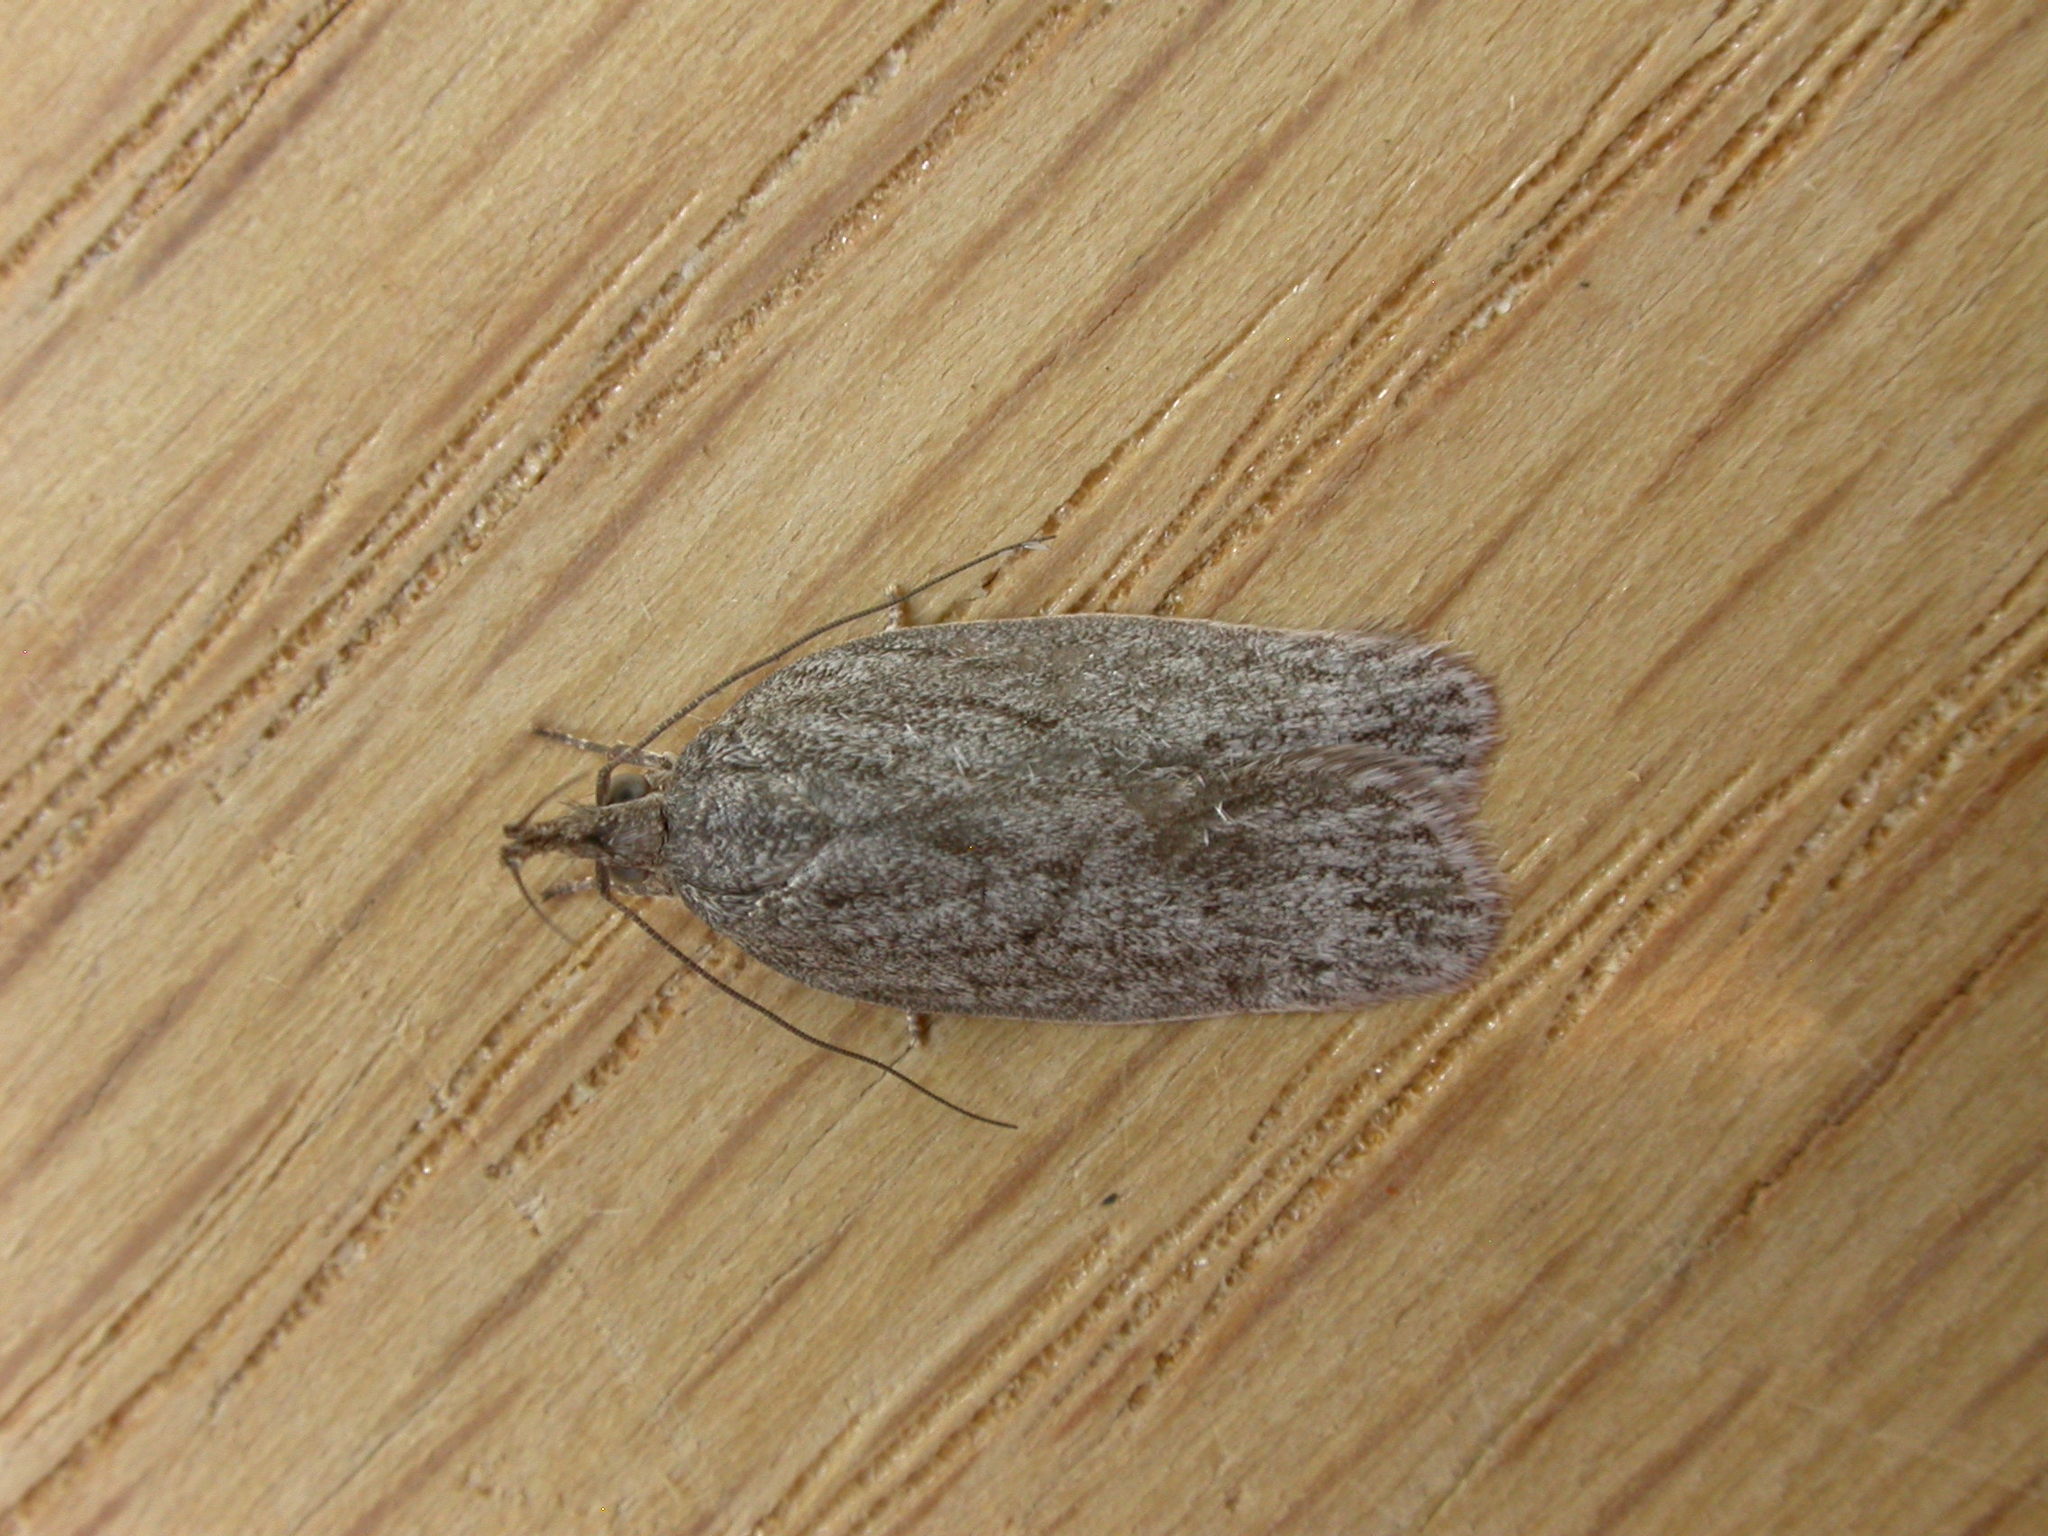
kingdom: Animalia
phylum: Arthropoda
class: Insecta
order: Lepidoptera
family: Depressariidae
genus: Pedois
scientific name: Pedois lewinella
